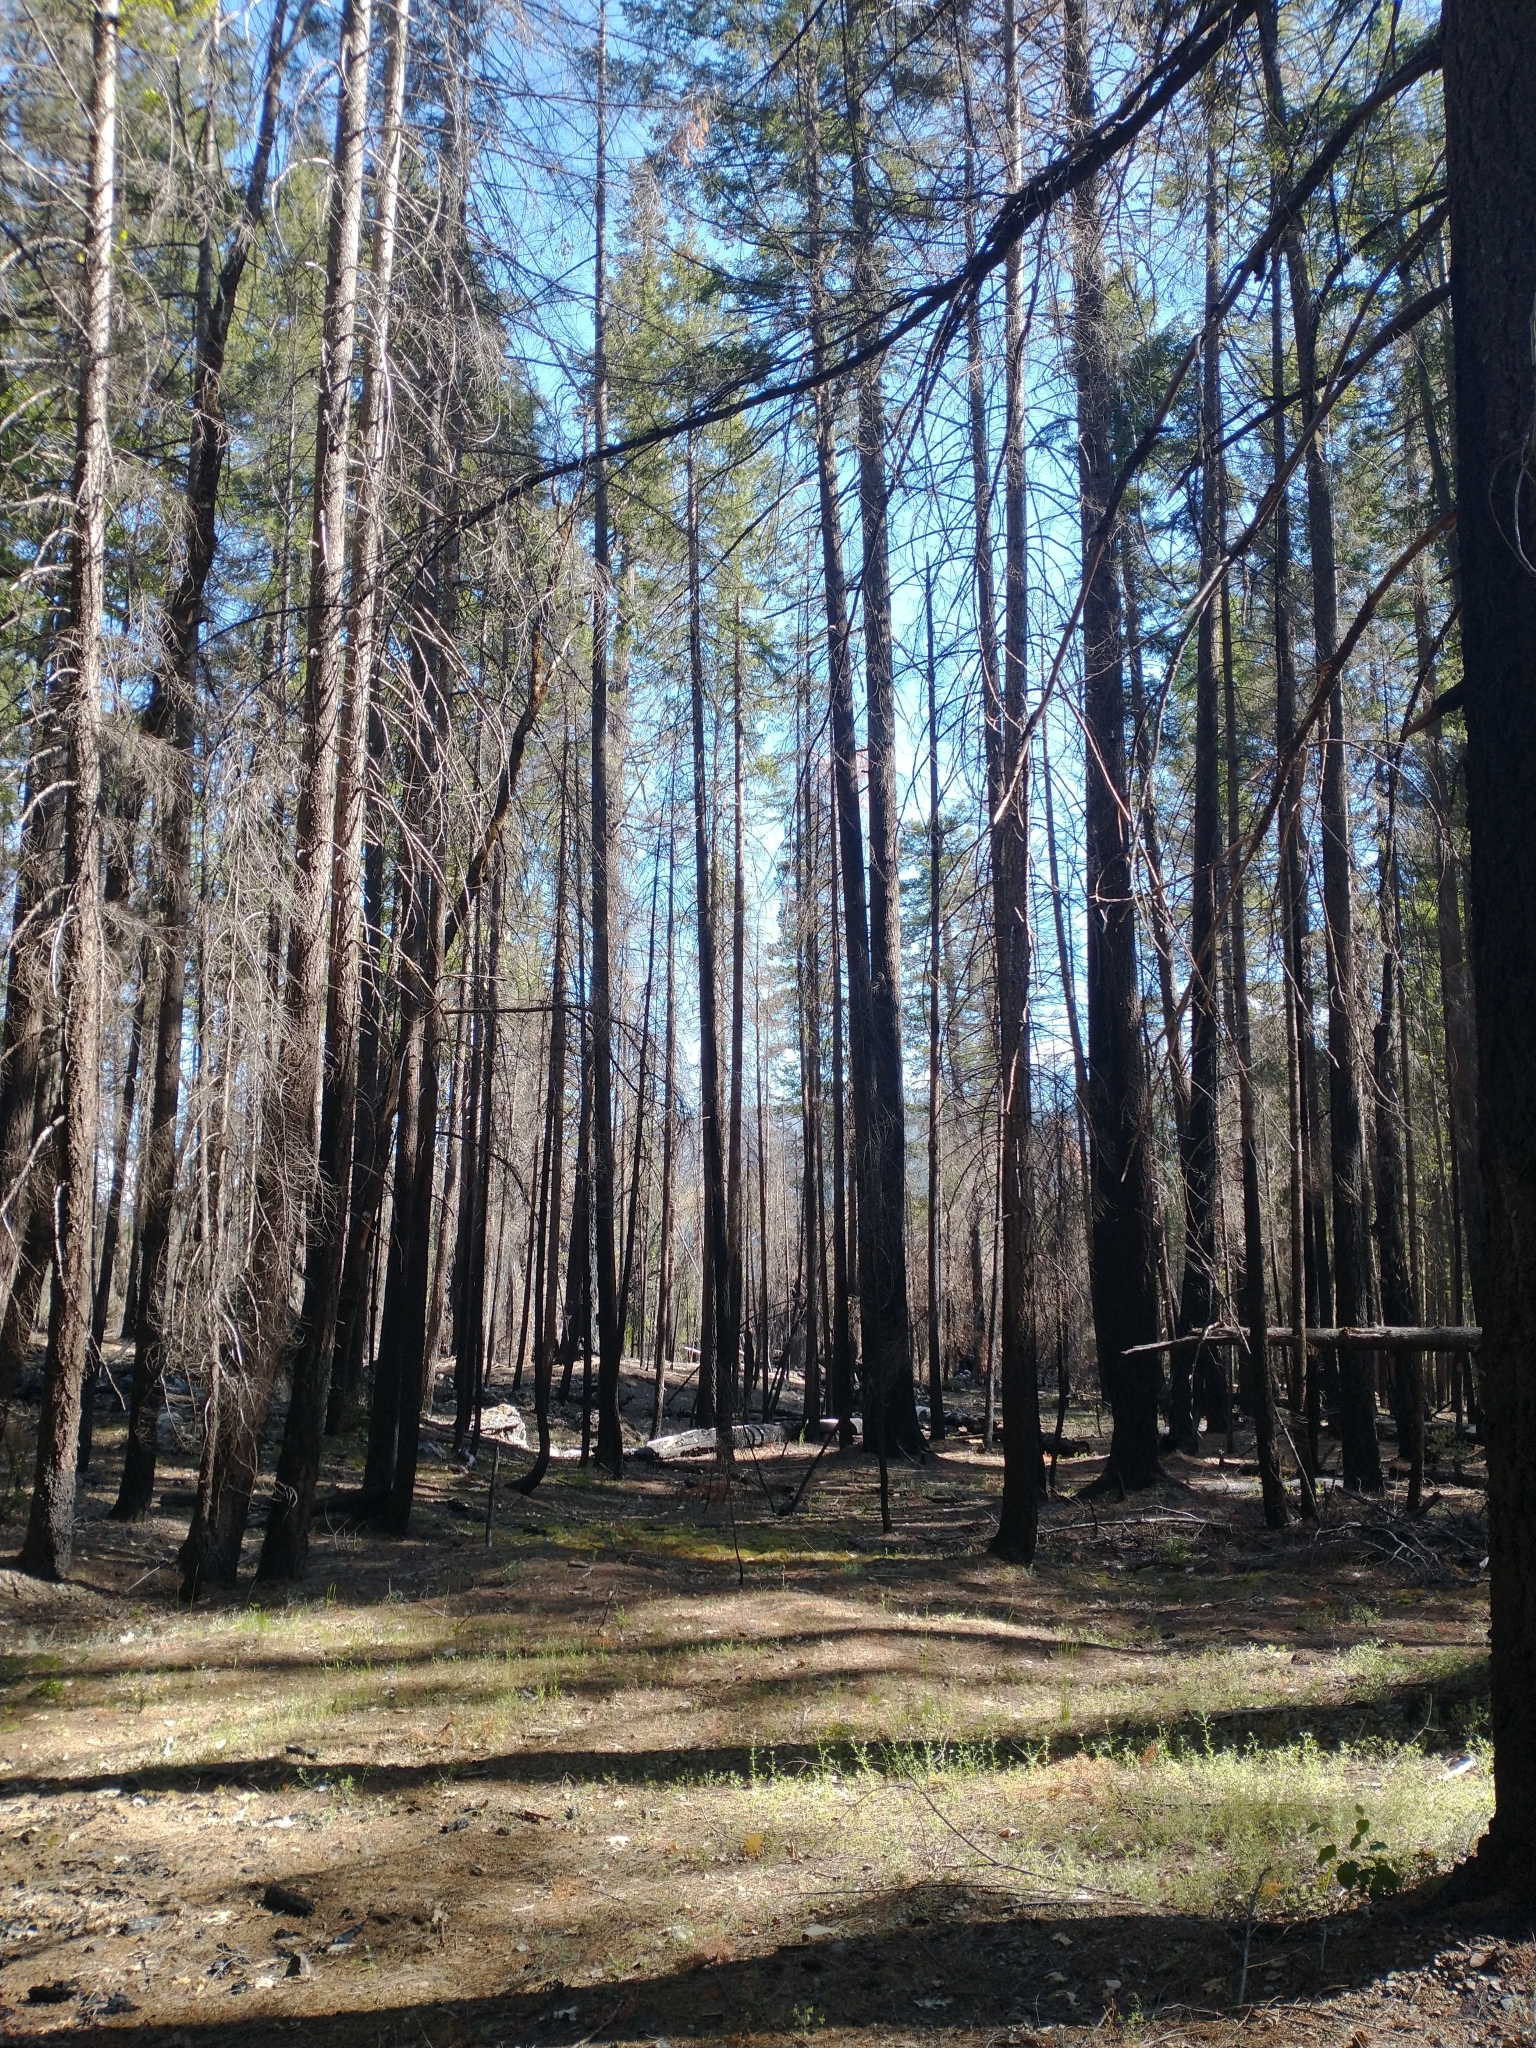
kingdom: Plantae
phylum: Tracheophyta
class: Pinopsida
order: Pinales
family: Pinaceae
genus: Pseudotsuga
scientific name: Pseudotsuga menziesii
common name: Douglas fir
